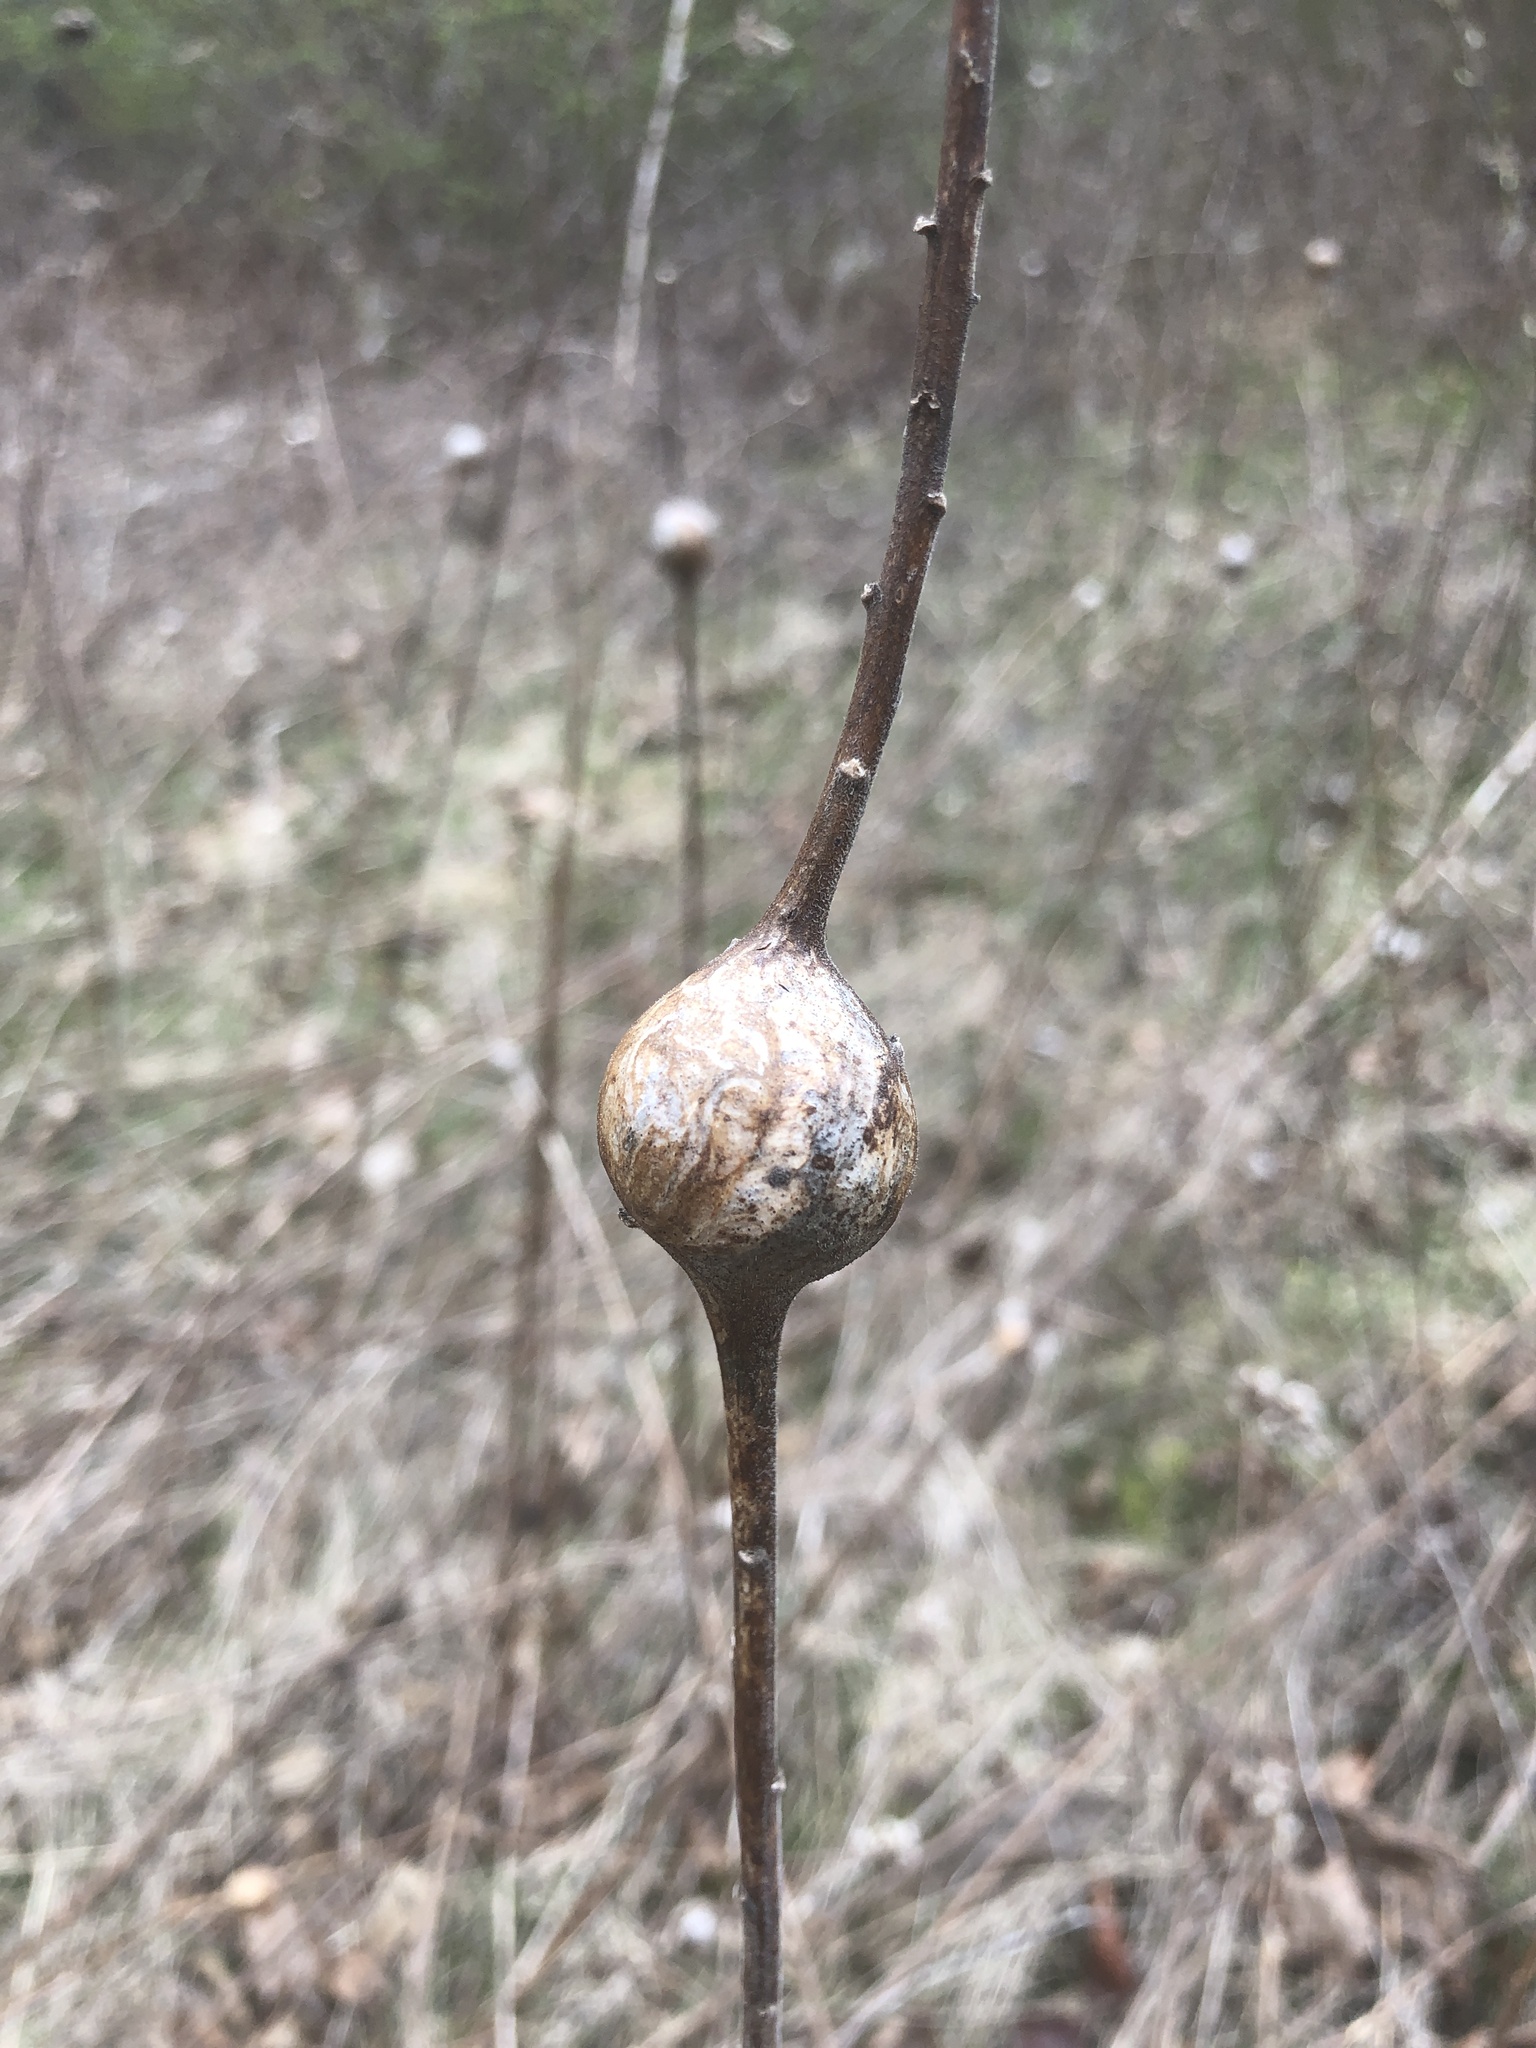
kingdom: Animalia
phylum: Arthropoda
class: Insecta
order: Diptera
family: Tephritidae
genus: Eurosta
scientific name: Eurosta solidaginis
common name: Goldenrod gall fly
